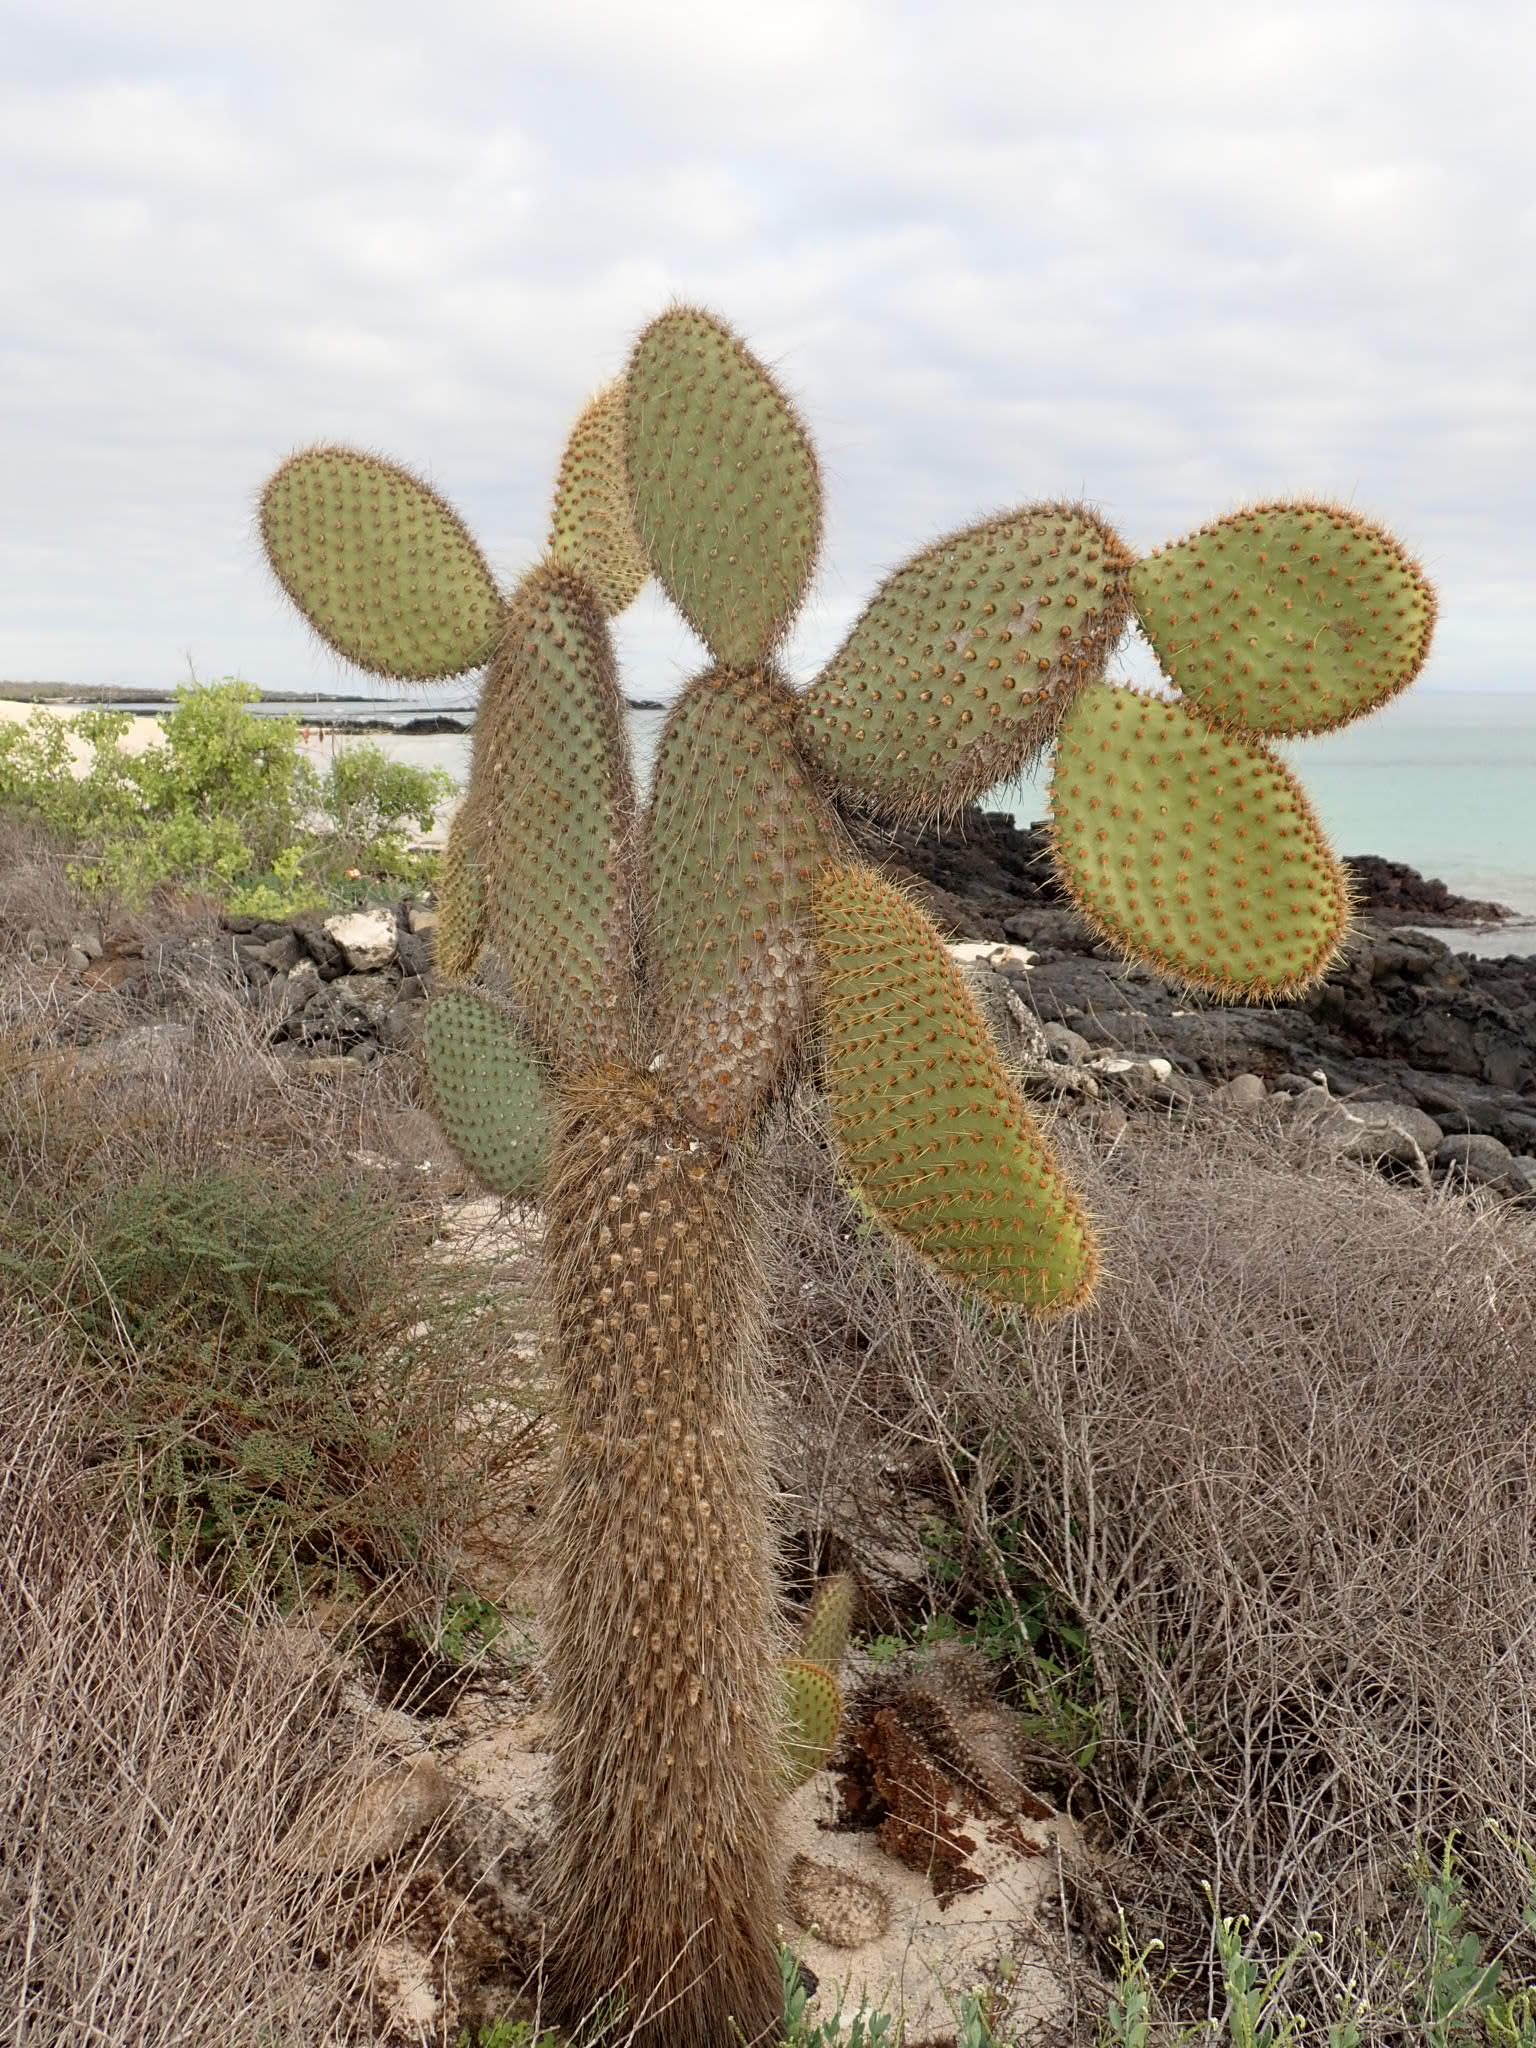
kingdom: Plantae
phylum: Tracheophyta
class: Magnoliopsida
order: Caryophyllales
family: Cactaceae
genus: Opuntia
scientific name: Opuntia galapageia
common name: Galápagos prickly pear
